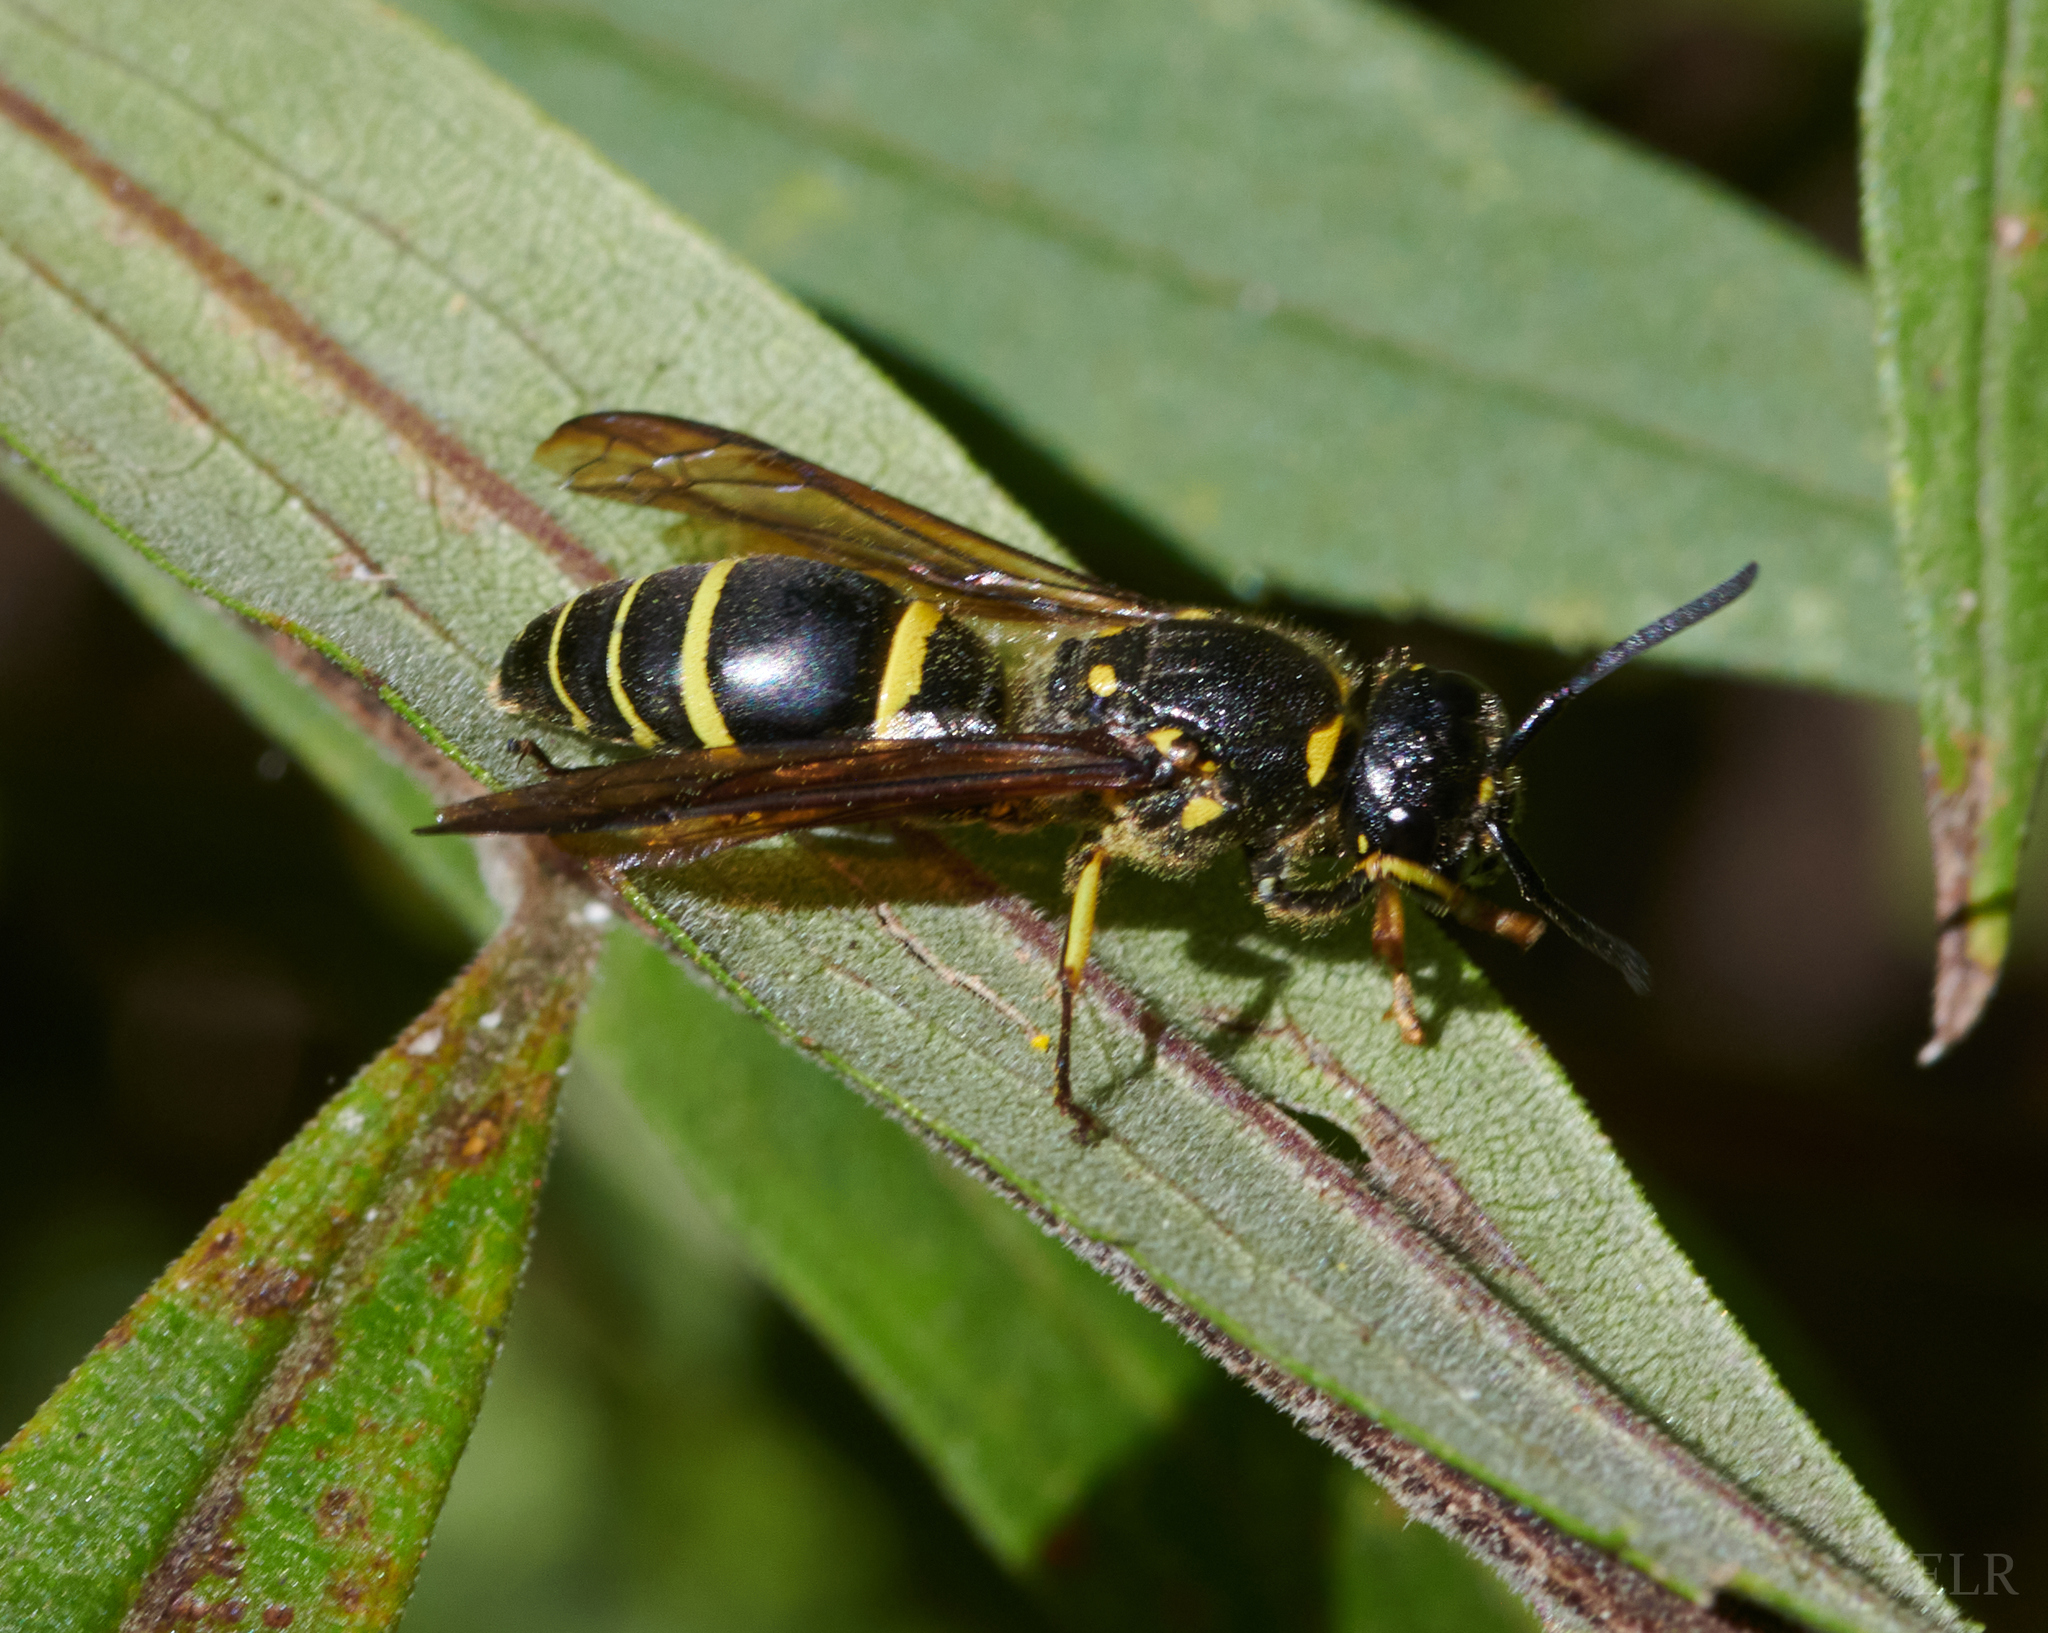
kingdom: Animalia
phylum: Arthropoda
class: Insecta
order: Hymenoptera
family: Vespidae
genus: Ancistrocerus
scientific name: Ancistrocerus
